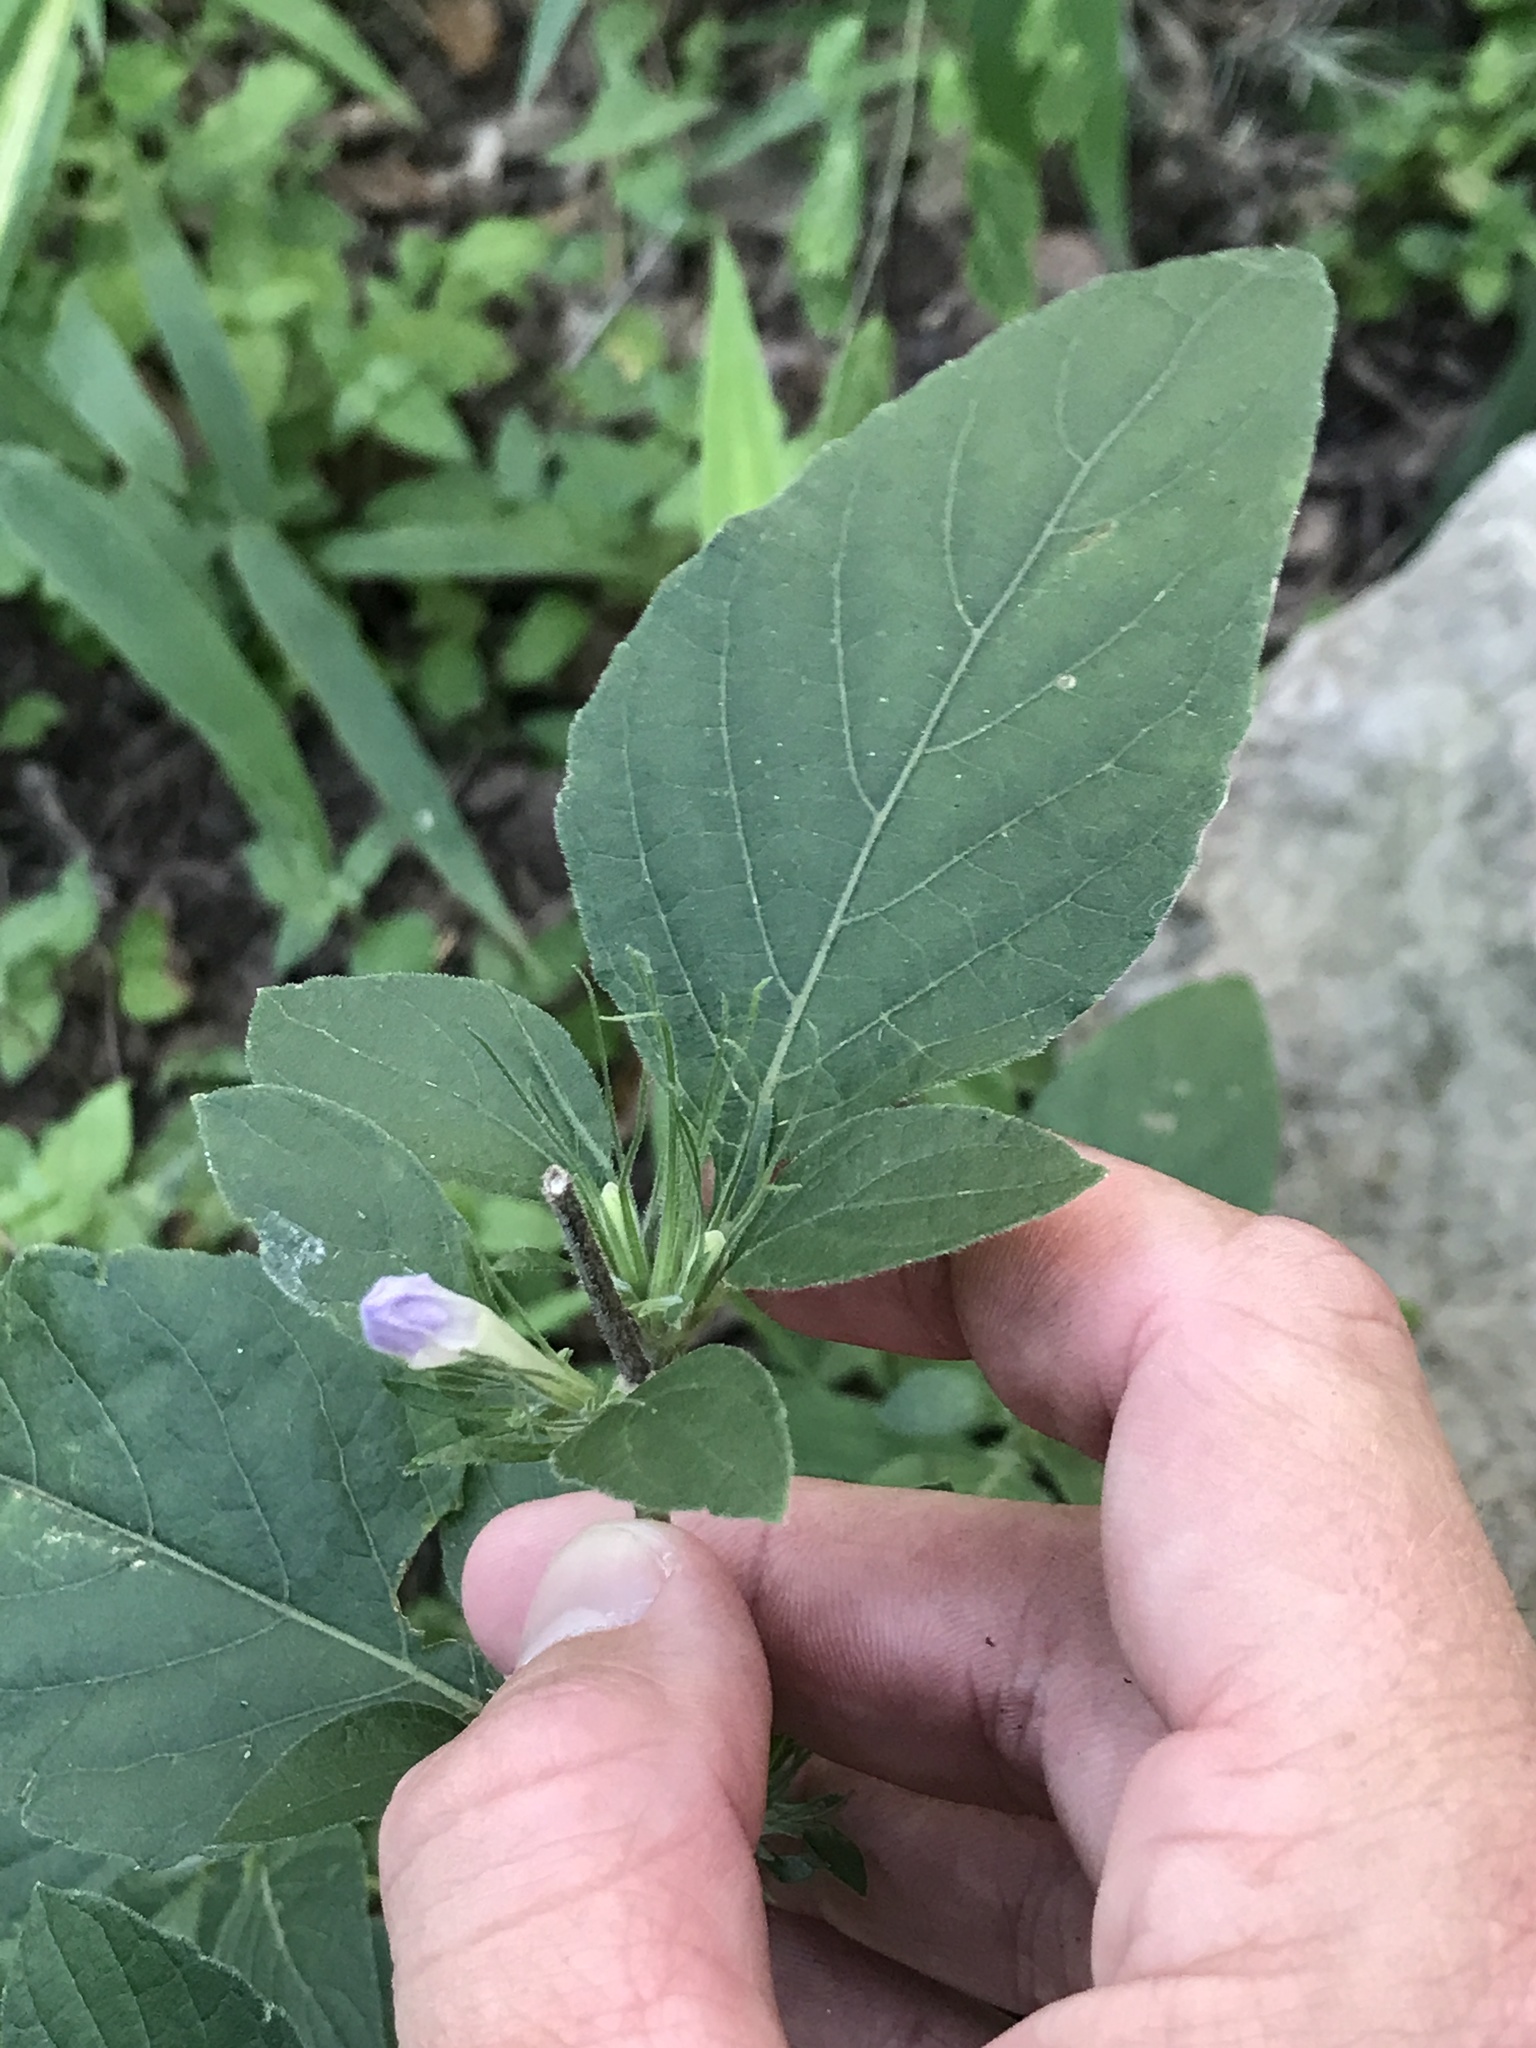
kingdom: Plantae
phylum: Tracheophyta
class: Magnoliopsida
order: Lamiales
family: Acanthaceae
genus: Ruellia
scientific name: Ruellia drummondiana
